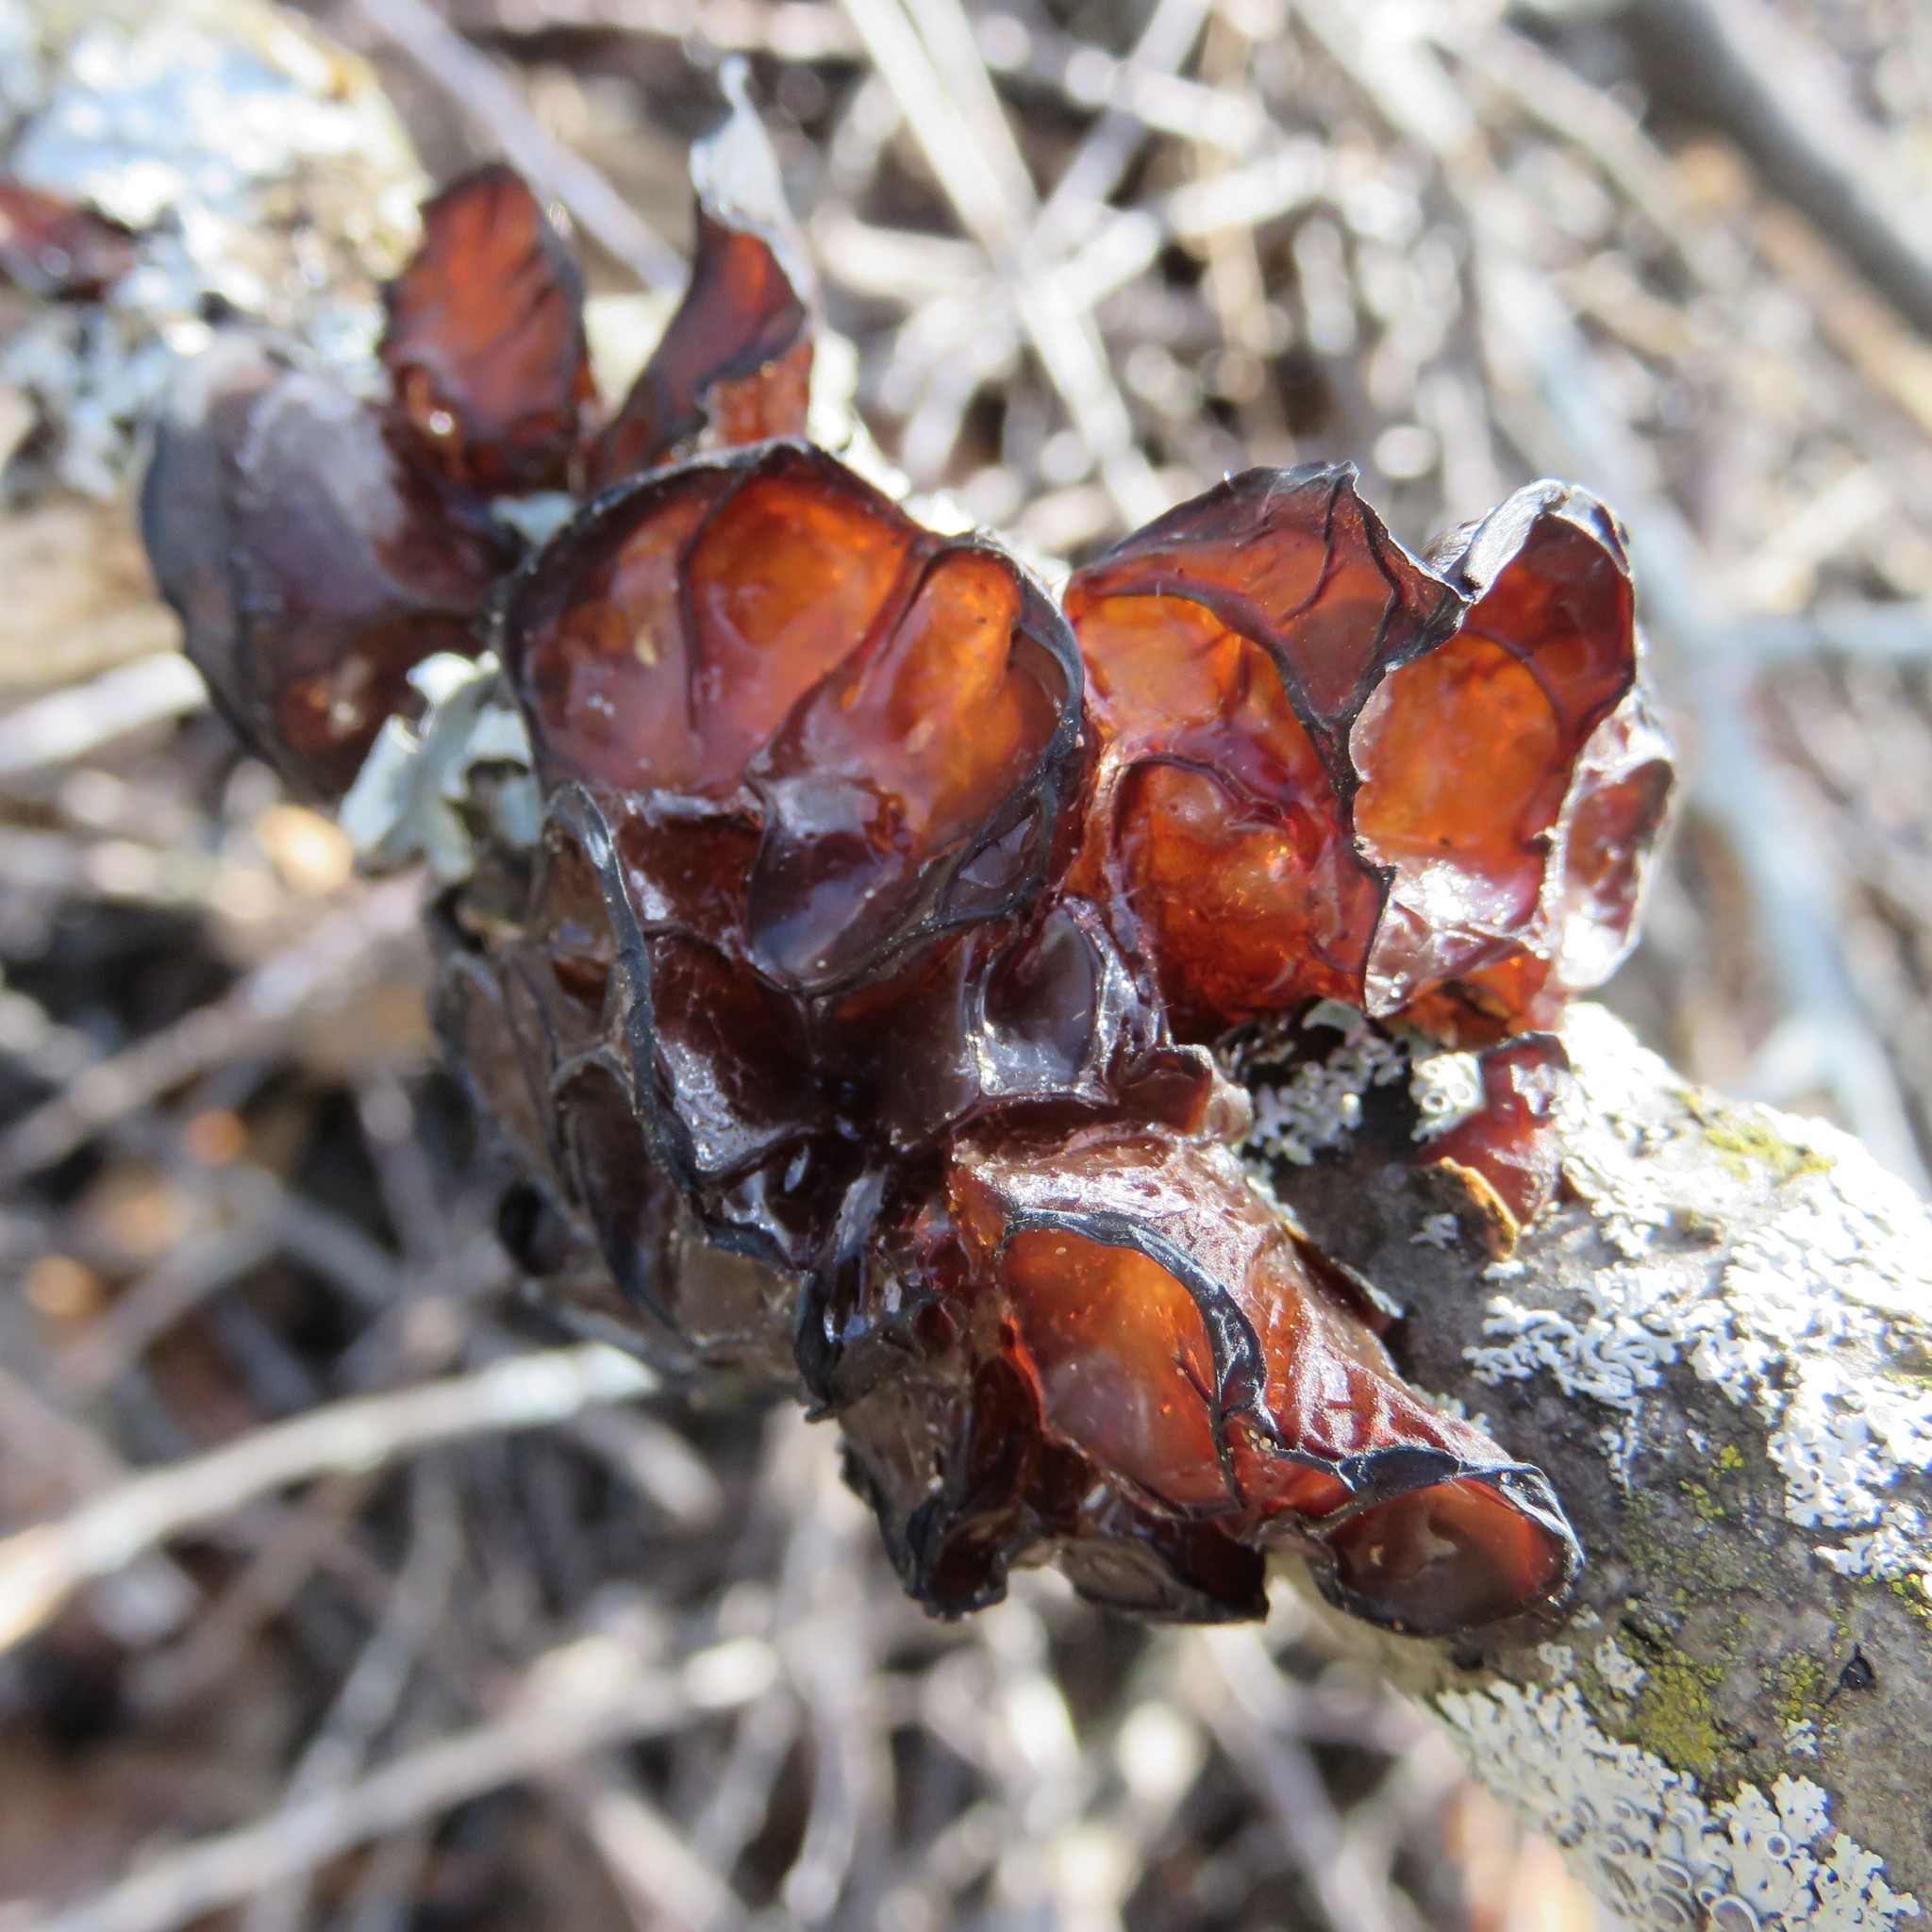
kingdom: Fungi
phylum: Basidiomycota
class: Agaricomycetes
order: Auriculariales
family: Auriculariaceae
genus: Exidia
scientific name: Exidia
